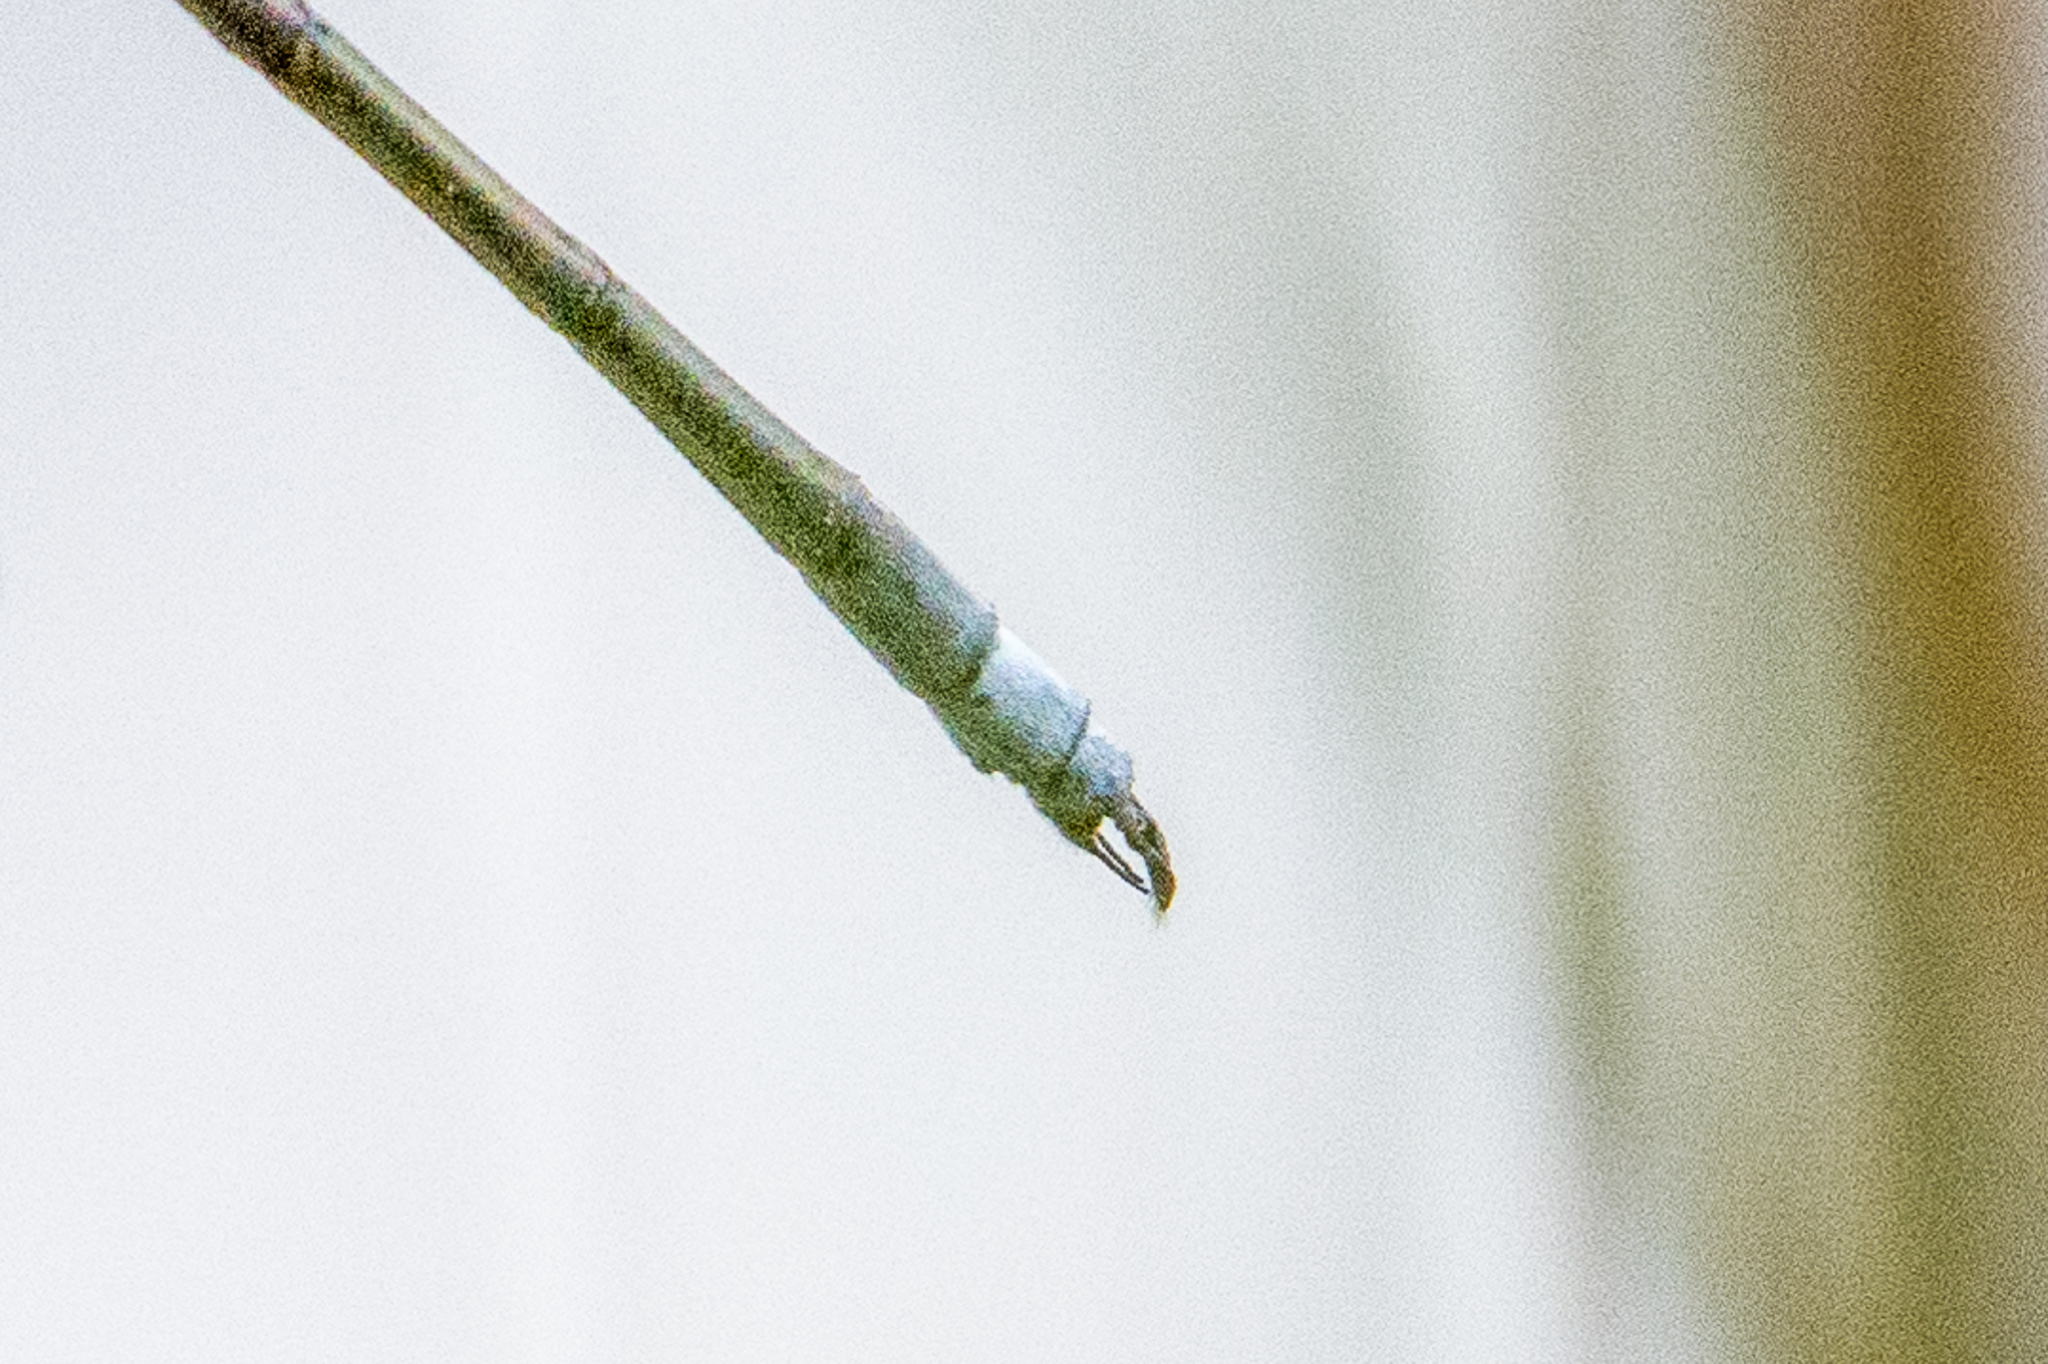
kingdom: Animalia
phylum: Arthropoda
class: Insecta
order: Odonata
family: Lestidae
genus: Lestes
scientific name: Lestes vigilax
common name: Swamp spreadwing
